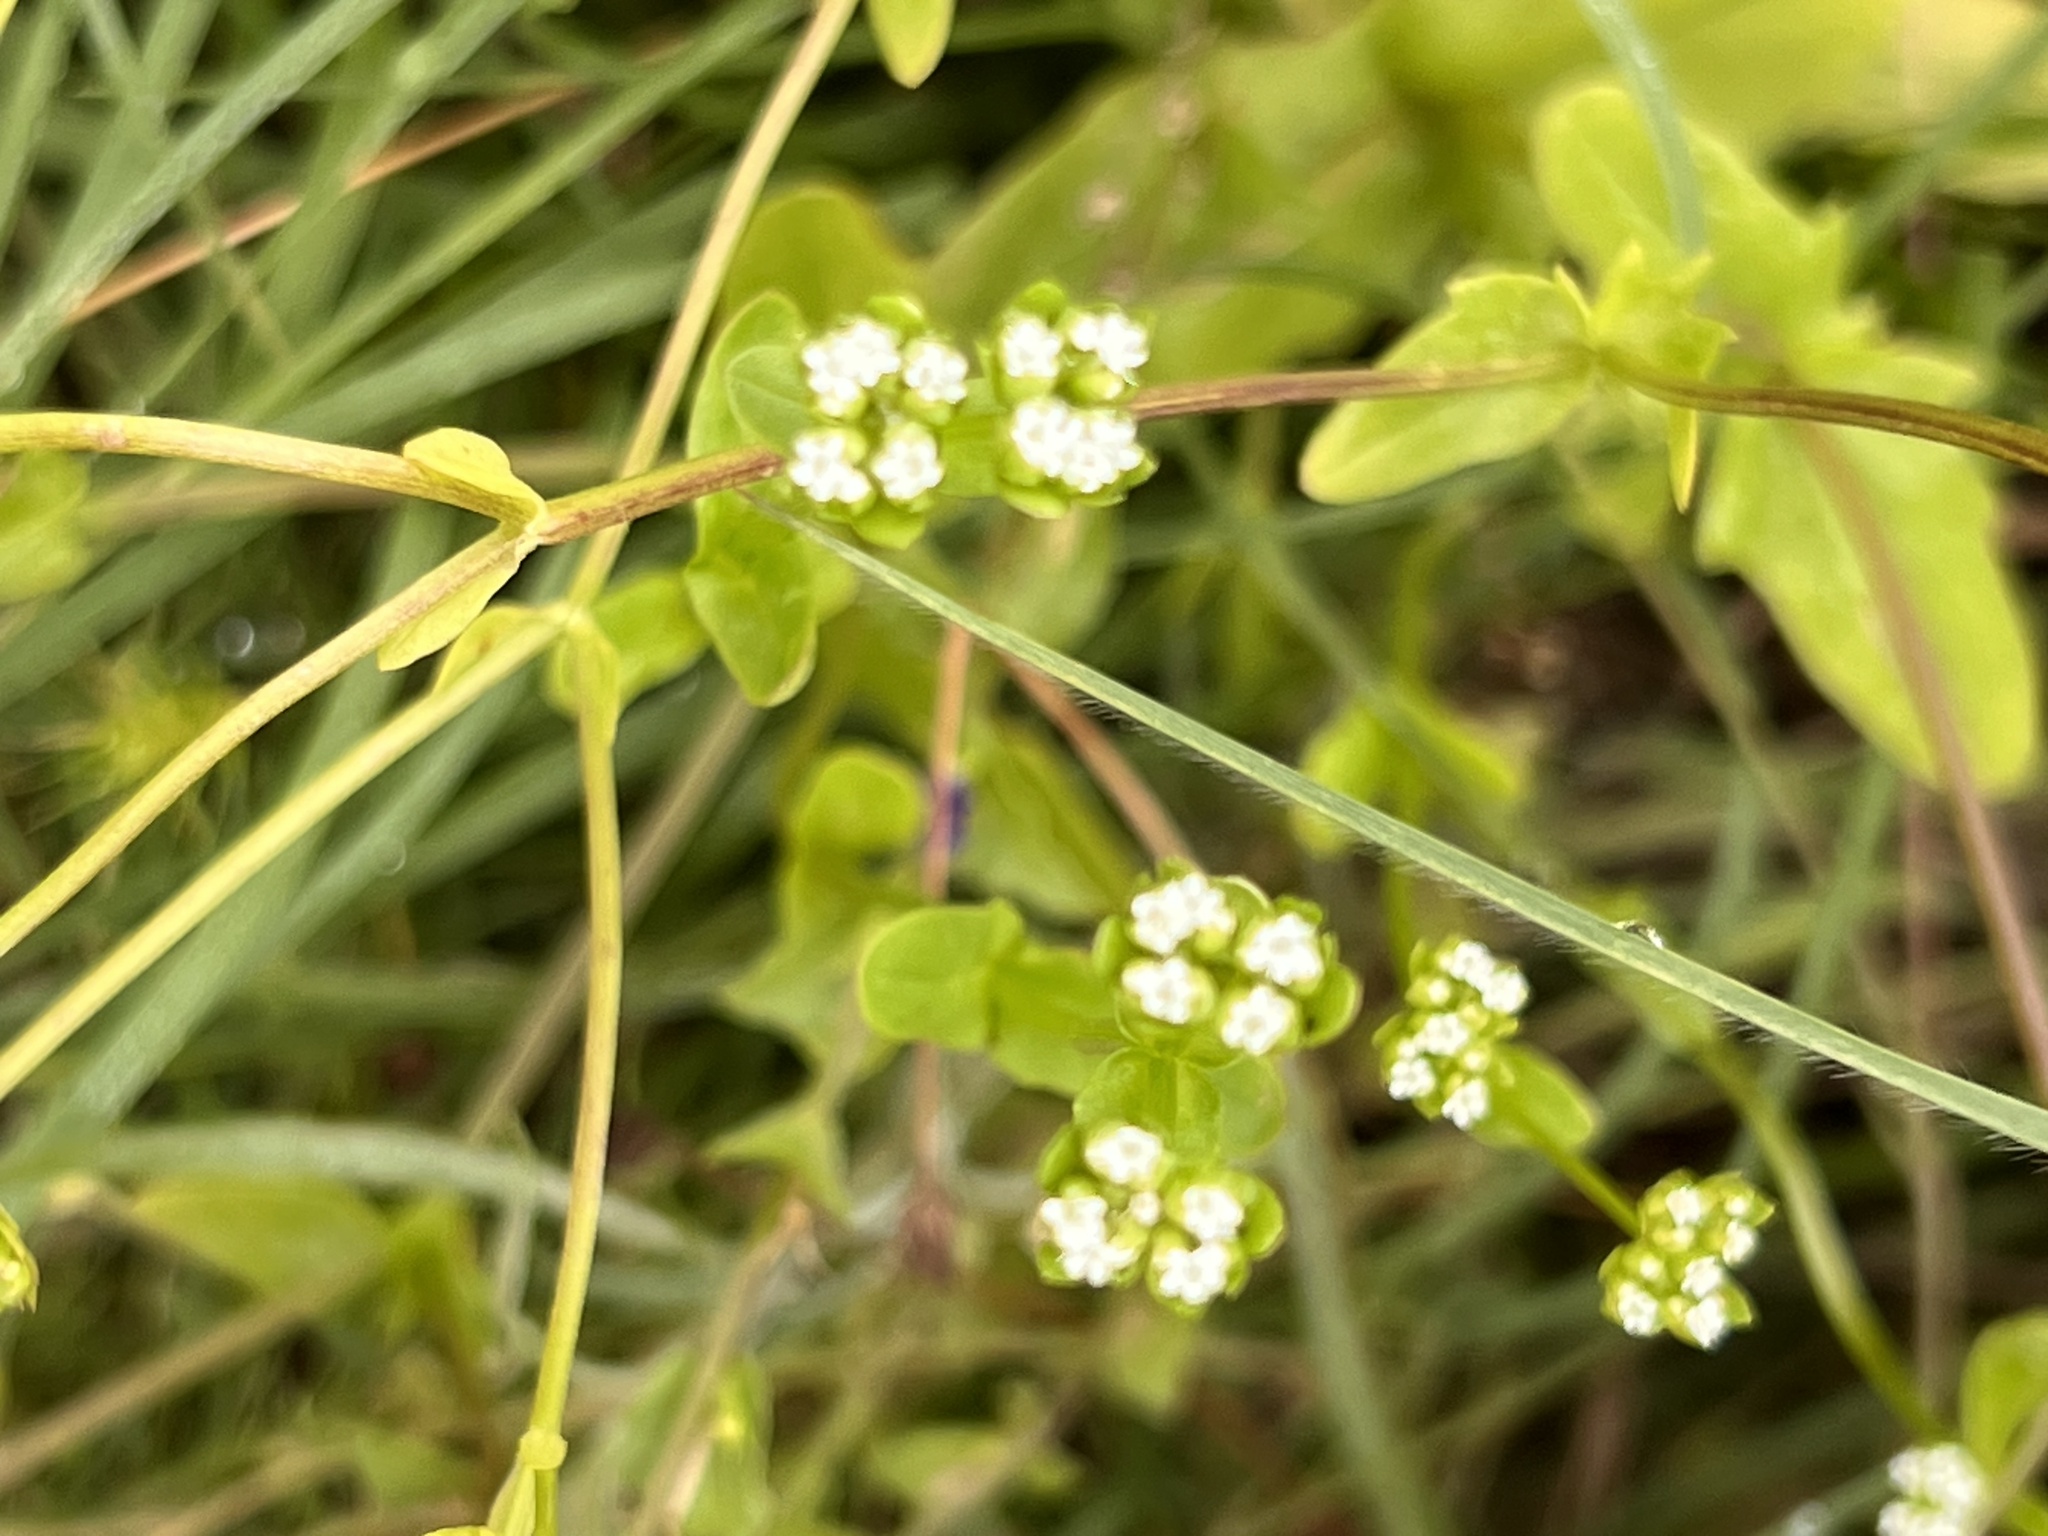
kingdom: Plantae
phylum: Tracheophyta
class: Magnoliopsida
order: Dipsacales
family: Caprifoliaceae
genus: Valerianella
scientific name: Valerianella radiata
